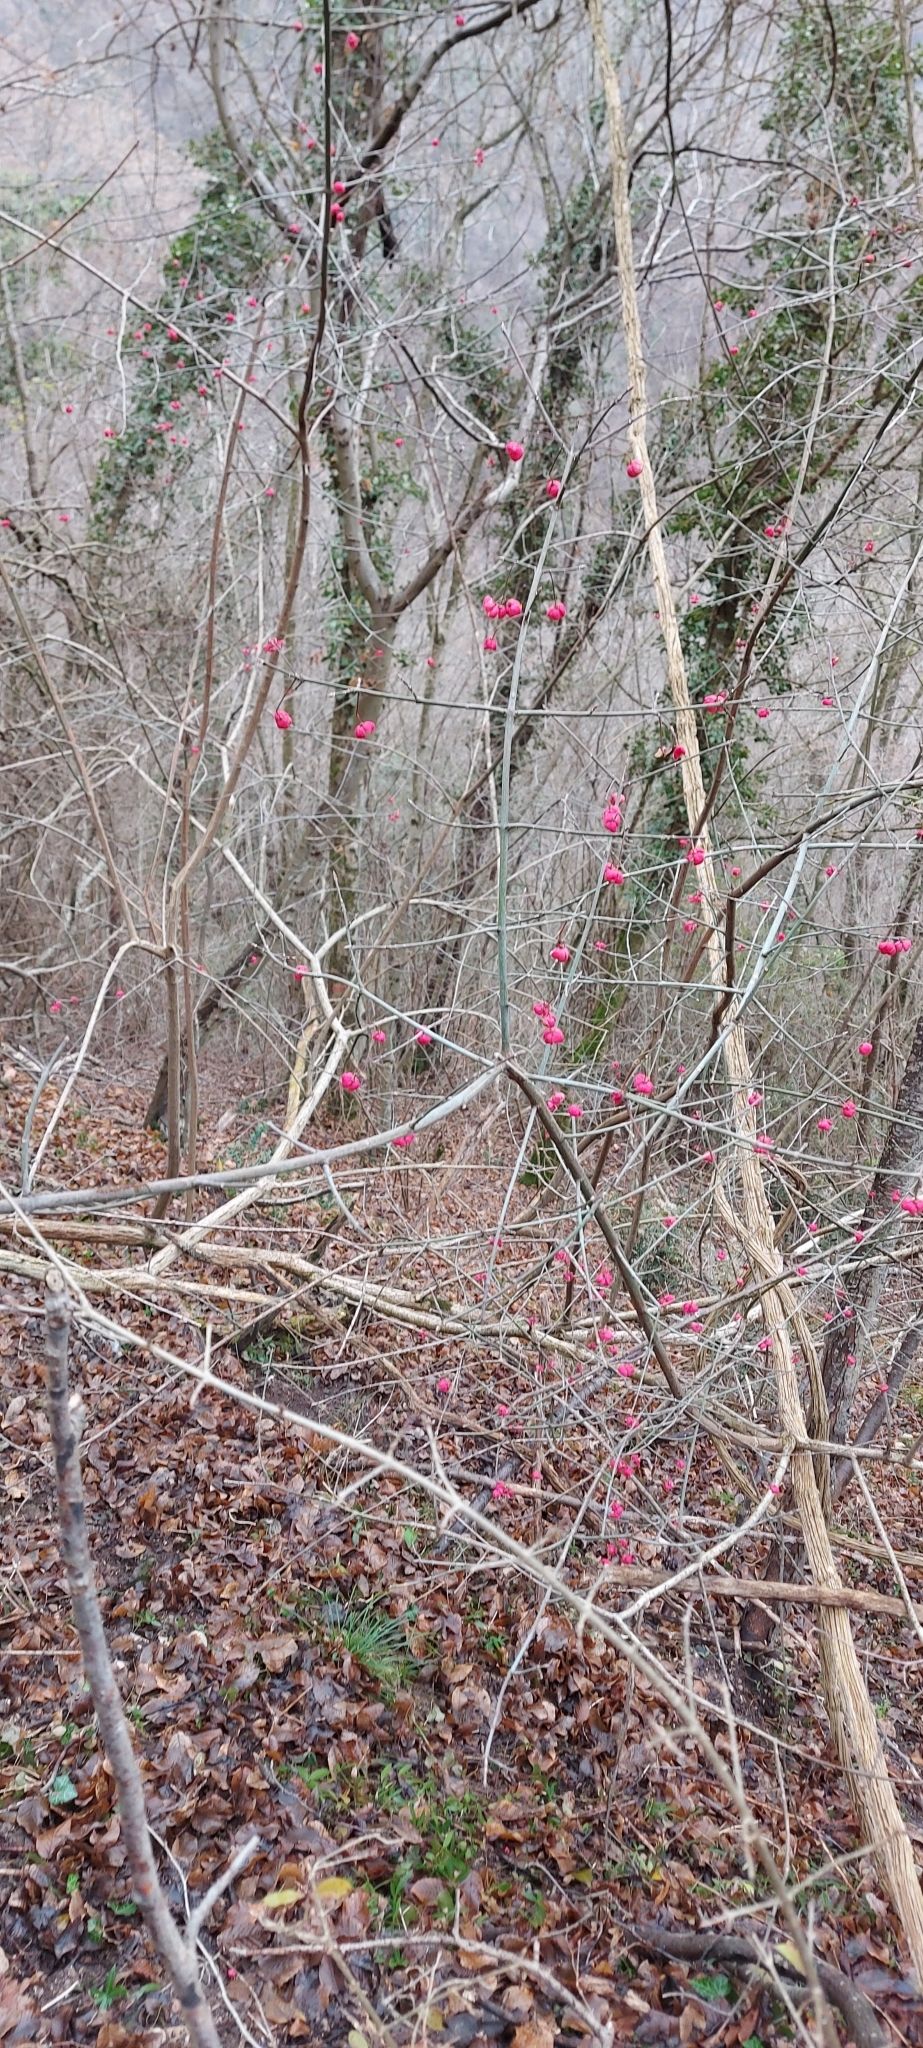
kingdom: Plantae
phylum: Tracheophyta
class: Magnoliopsida
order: Celastrales
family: Celastraceae
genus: Euonymus
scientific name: Euonymus europaeus
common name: Spindle
